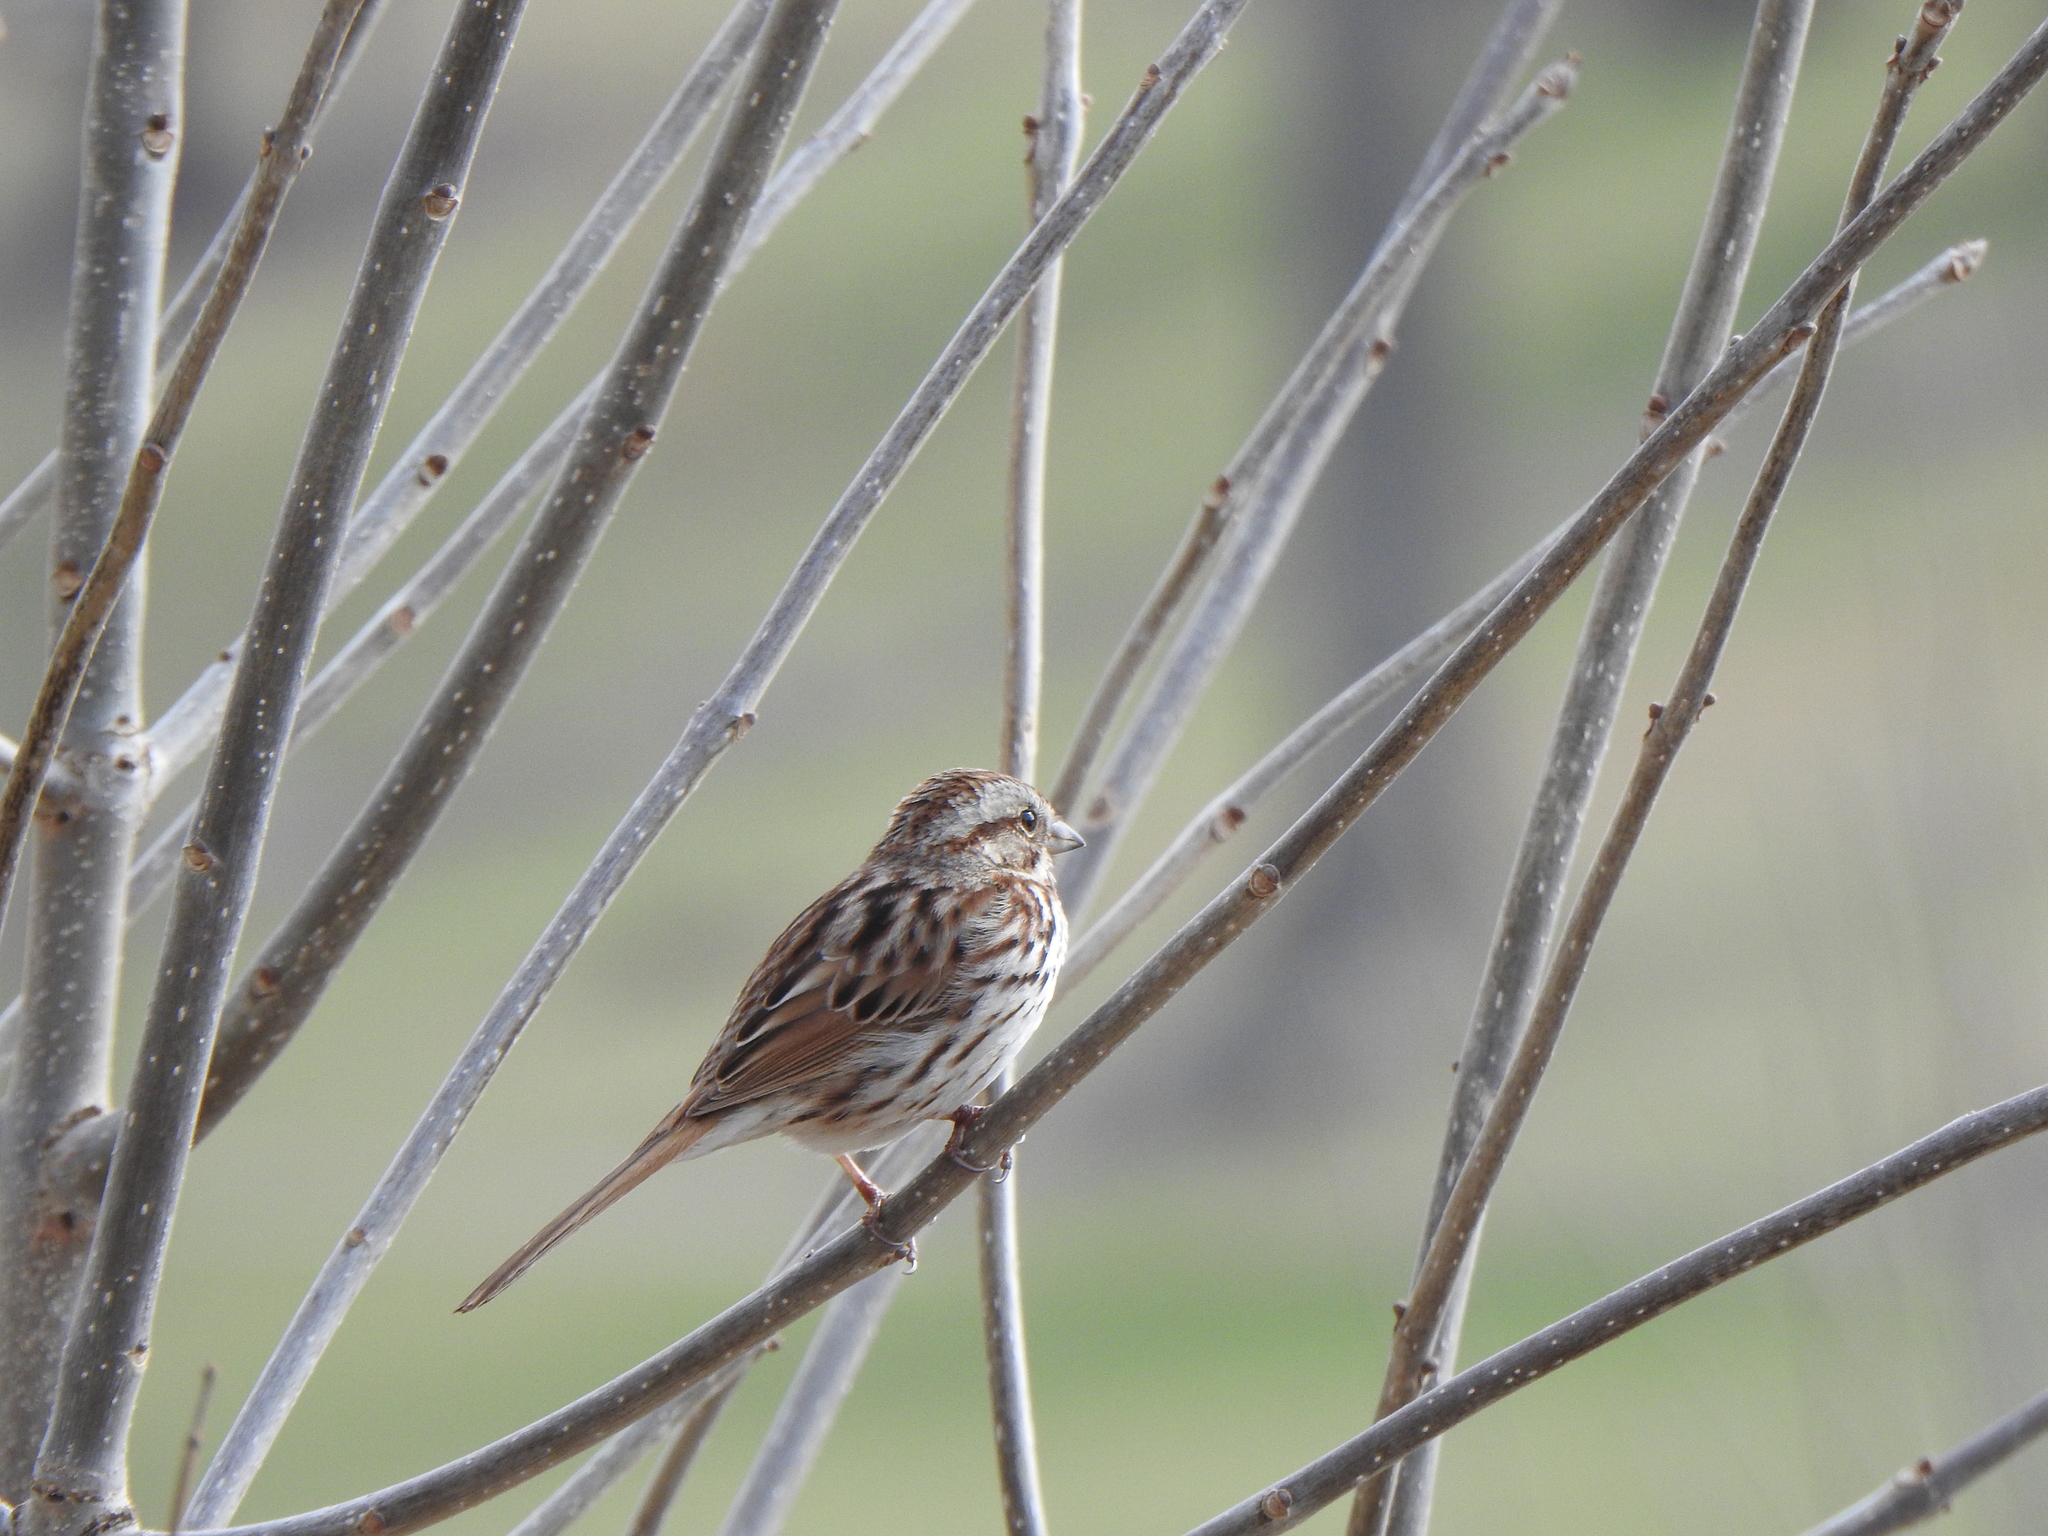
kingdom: Animalia
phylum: Chordata
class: Aves
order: Passeriformes
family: Passerellidae
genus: Melospiza
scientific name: Melospiza melodia
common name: Song sparrow
